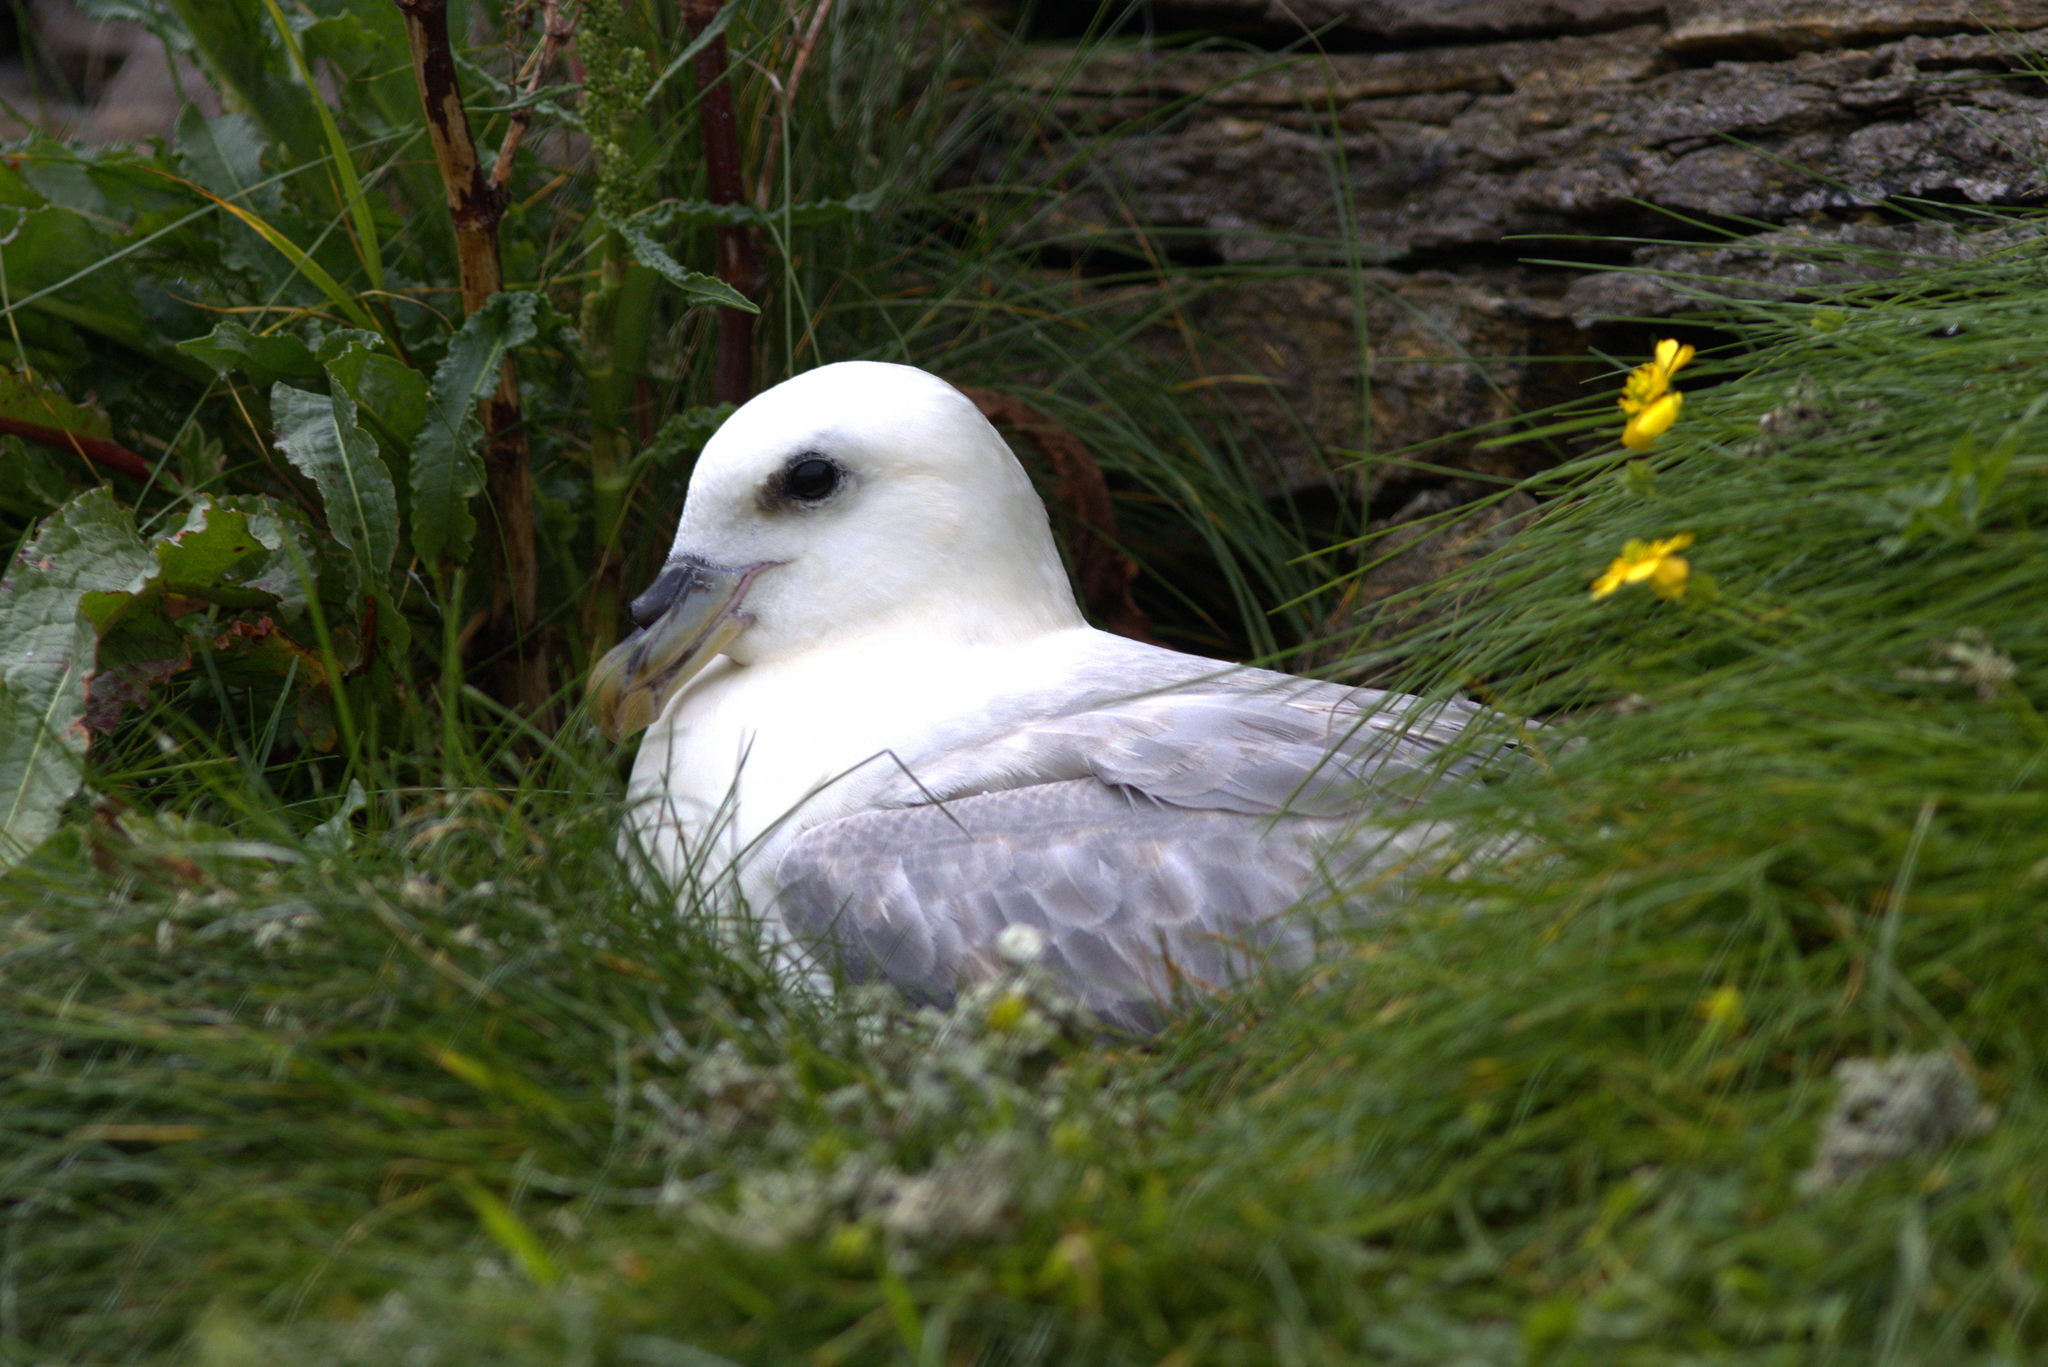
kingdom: Animalia
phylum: Chordata
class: Aves
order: Procellariiformes
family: Procellariidae
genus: Fulmarus
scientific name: Fulmarus glacialis
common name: Northern fulmar
